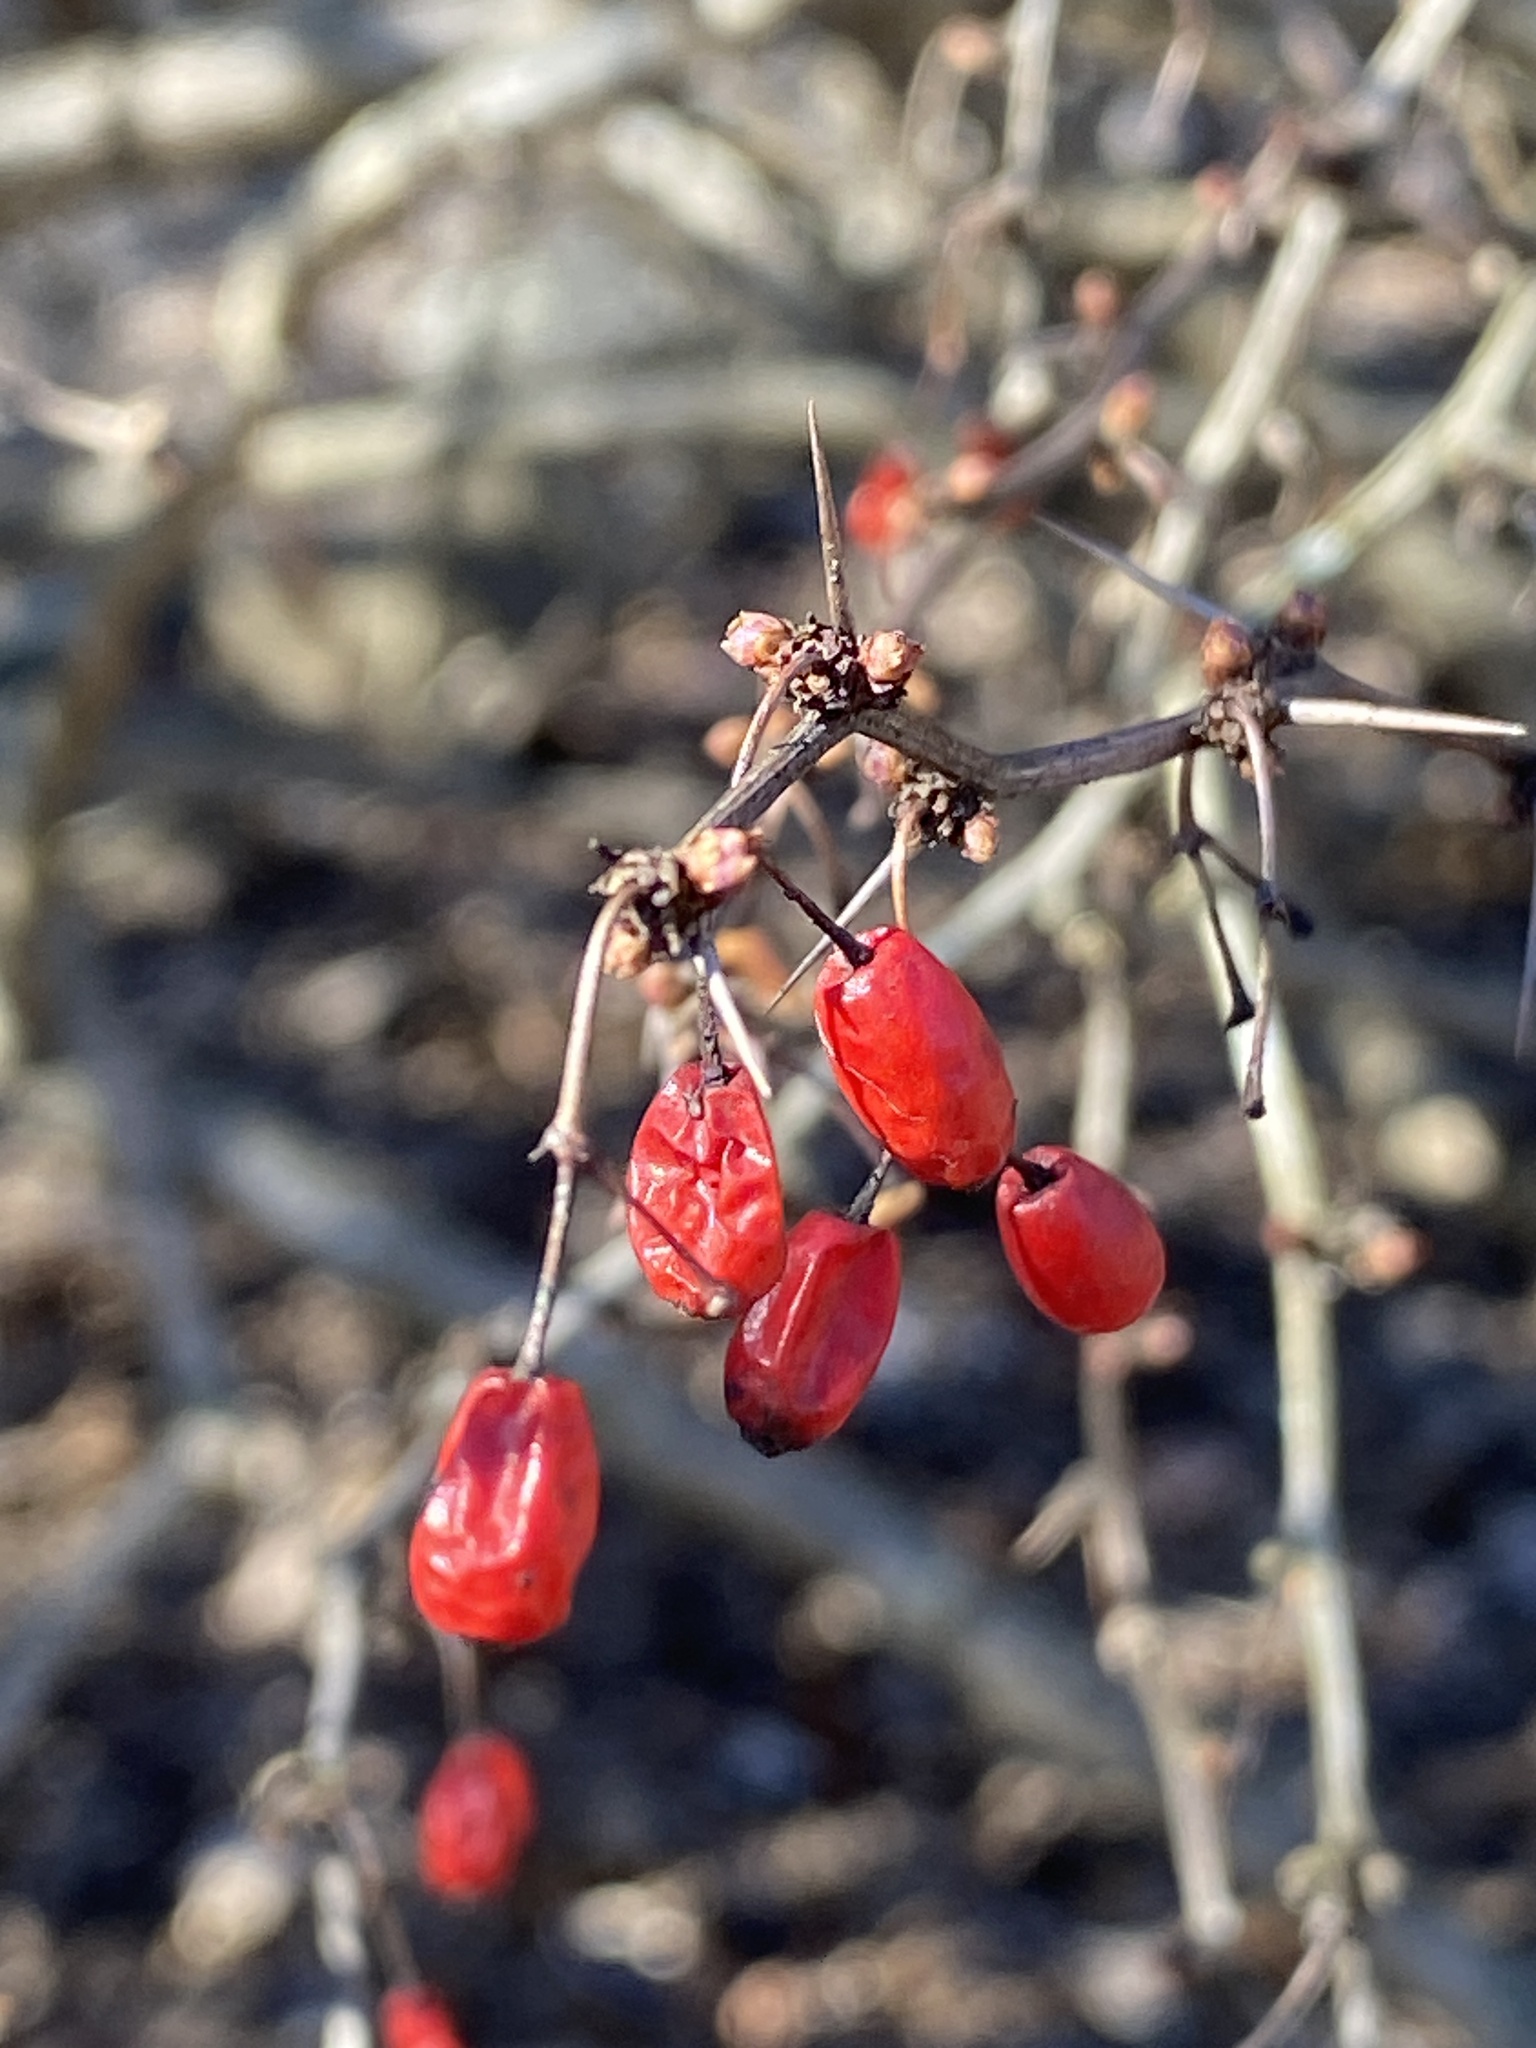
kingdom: Plantae
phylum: Tracheophyta
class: Magnoliopsida
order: Ranunculales
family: Berberidaceae
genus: Berberis
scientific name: Berberis thunbergii
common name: Japanese barberry
